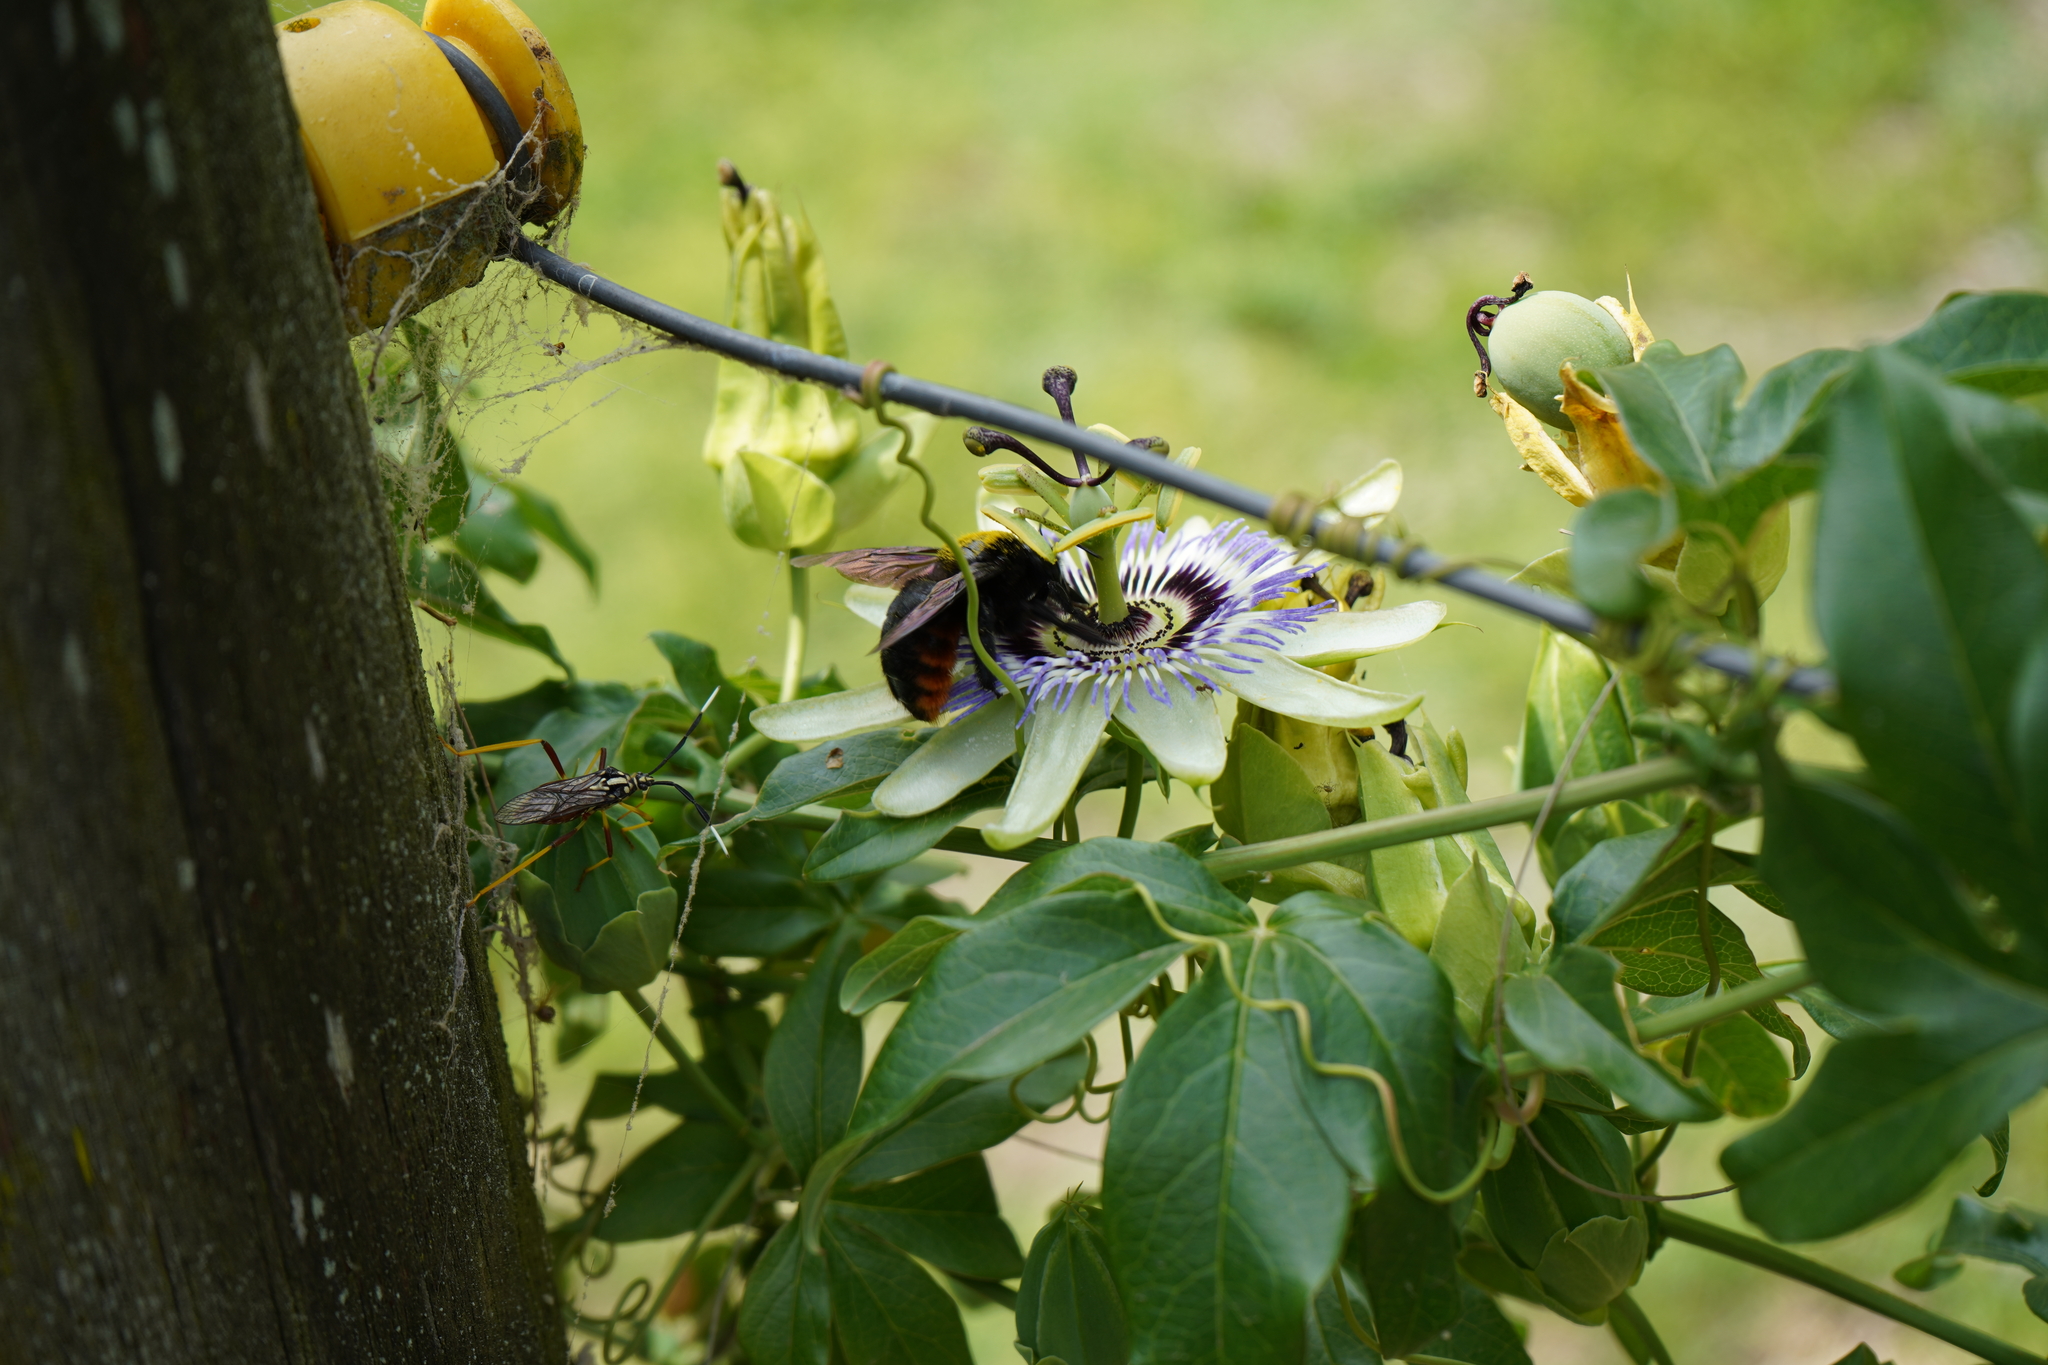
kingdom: Animalia
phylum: Arthropoda
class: Insecta
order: Hymenoptera
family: Apidae
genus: Xylocopa
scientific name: Xylocopa augusti
